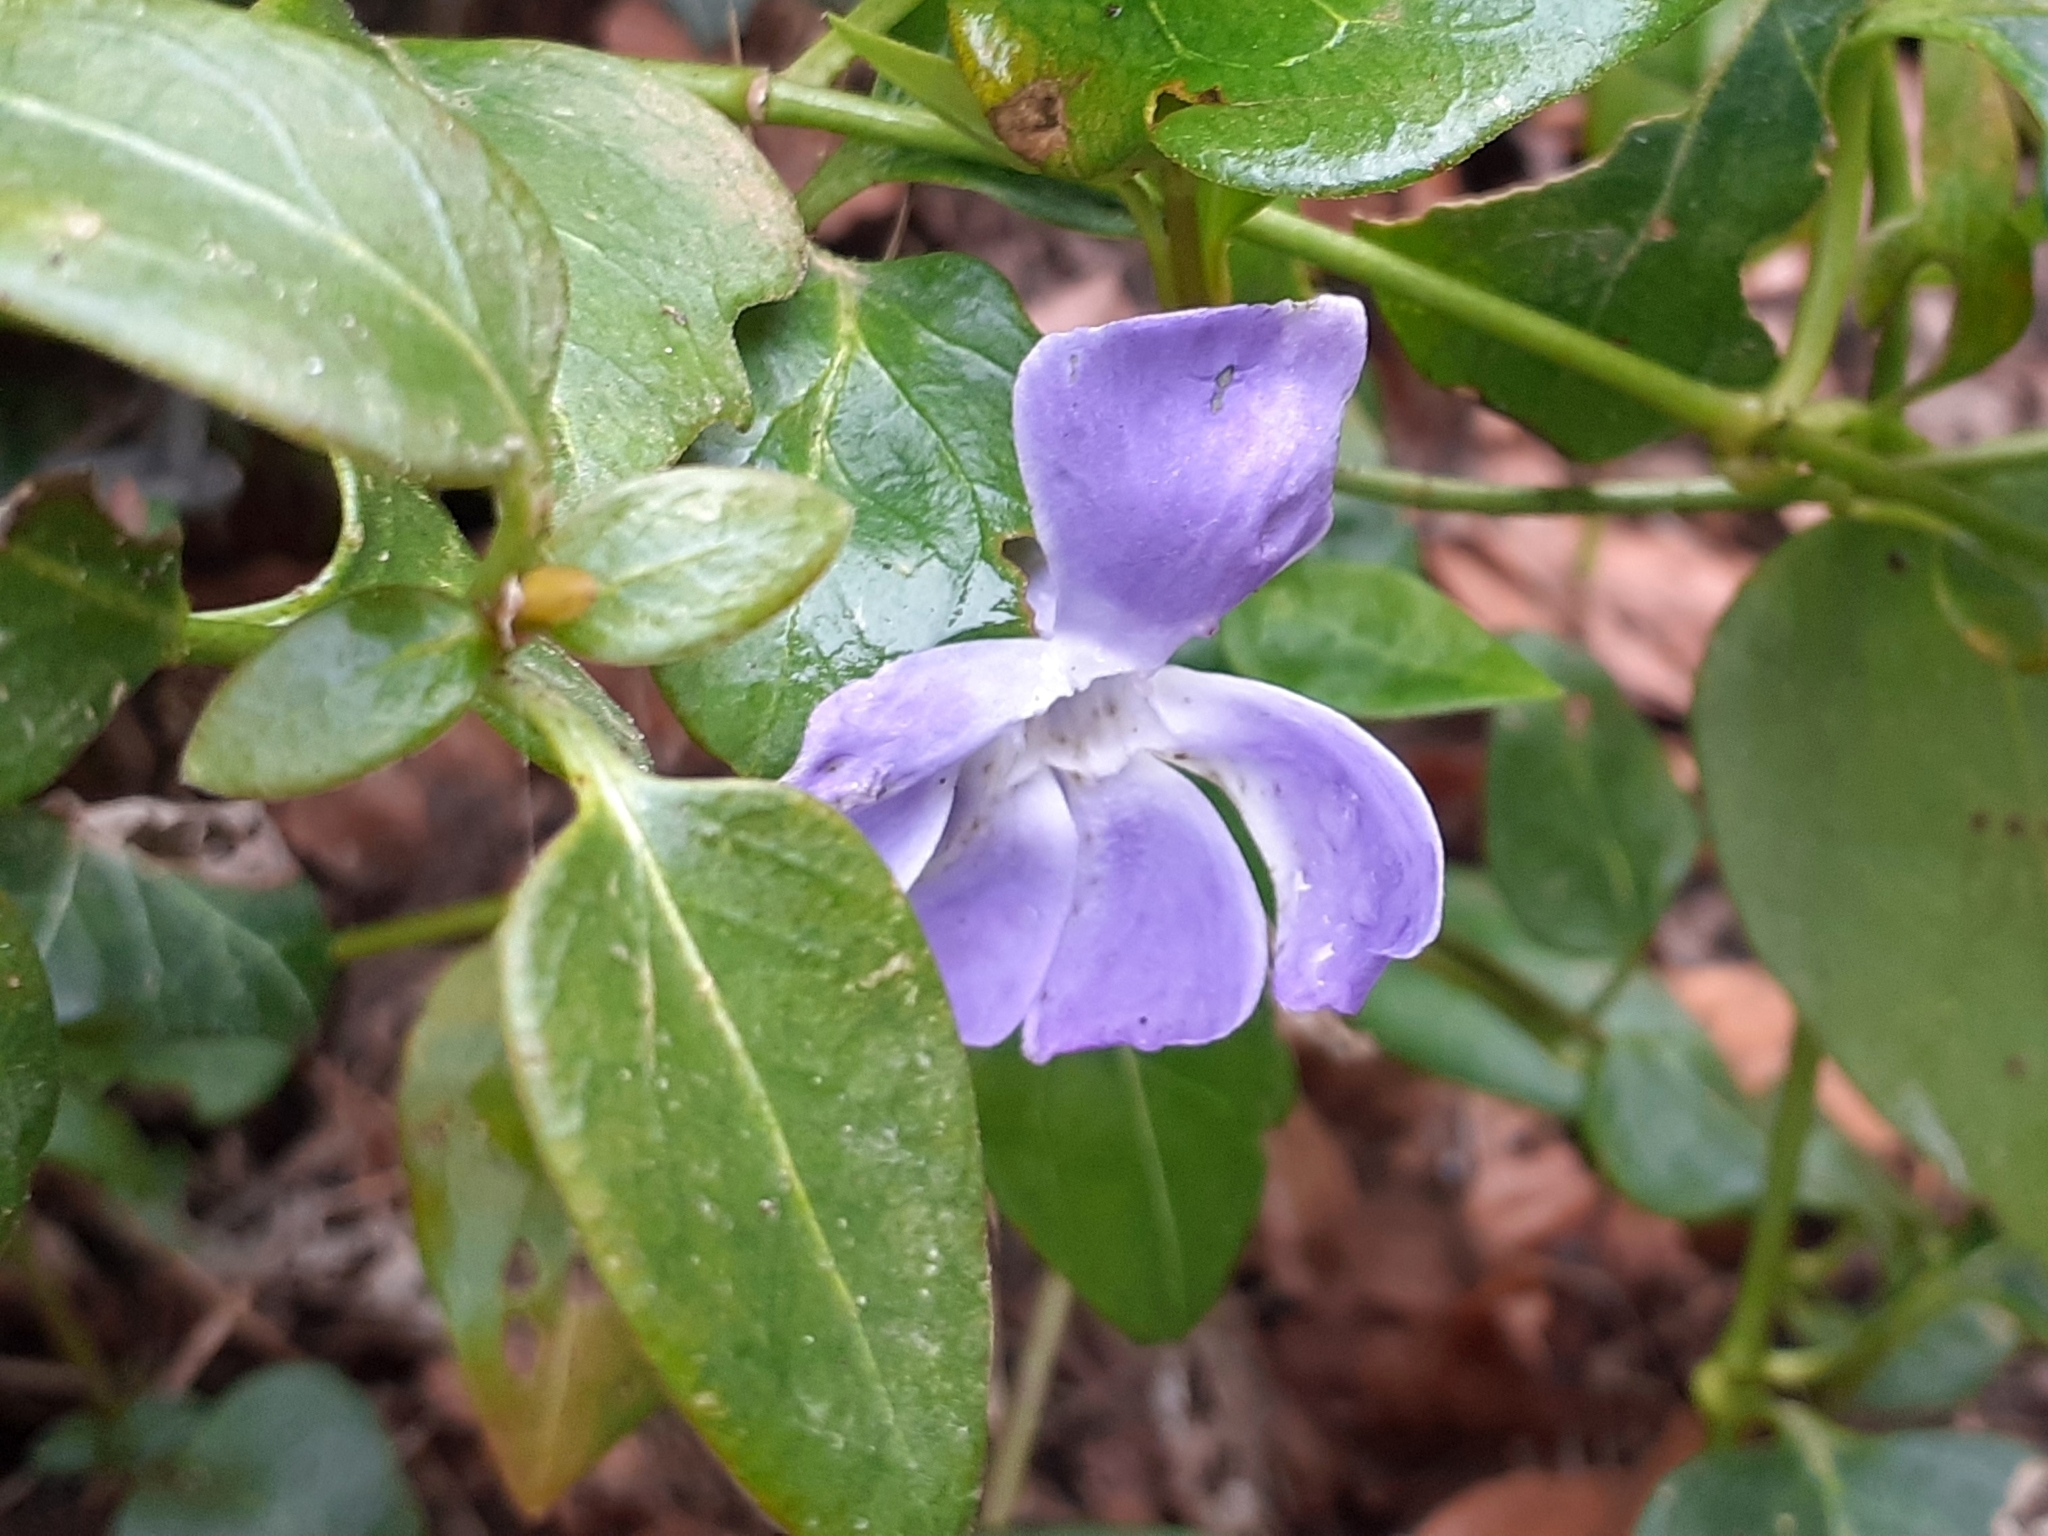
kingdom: Plantae
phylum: Tracheophyta
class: Magnoliopsida
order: Gentianales
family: Apocynaceae
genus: Vinca
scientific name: Vinca major
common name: Greater periwinkle
